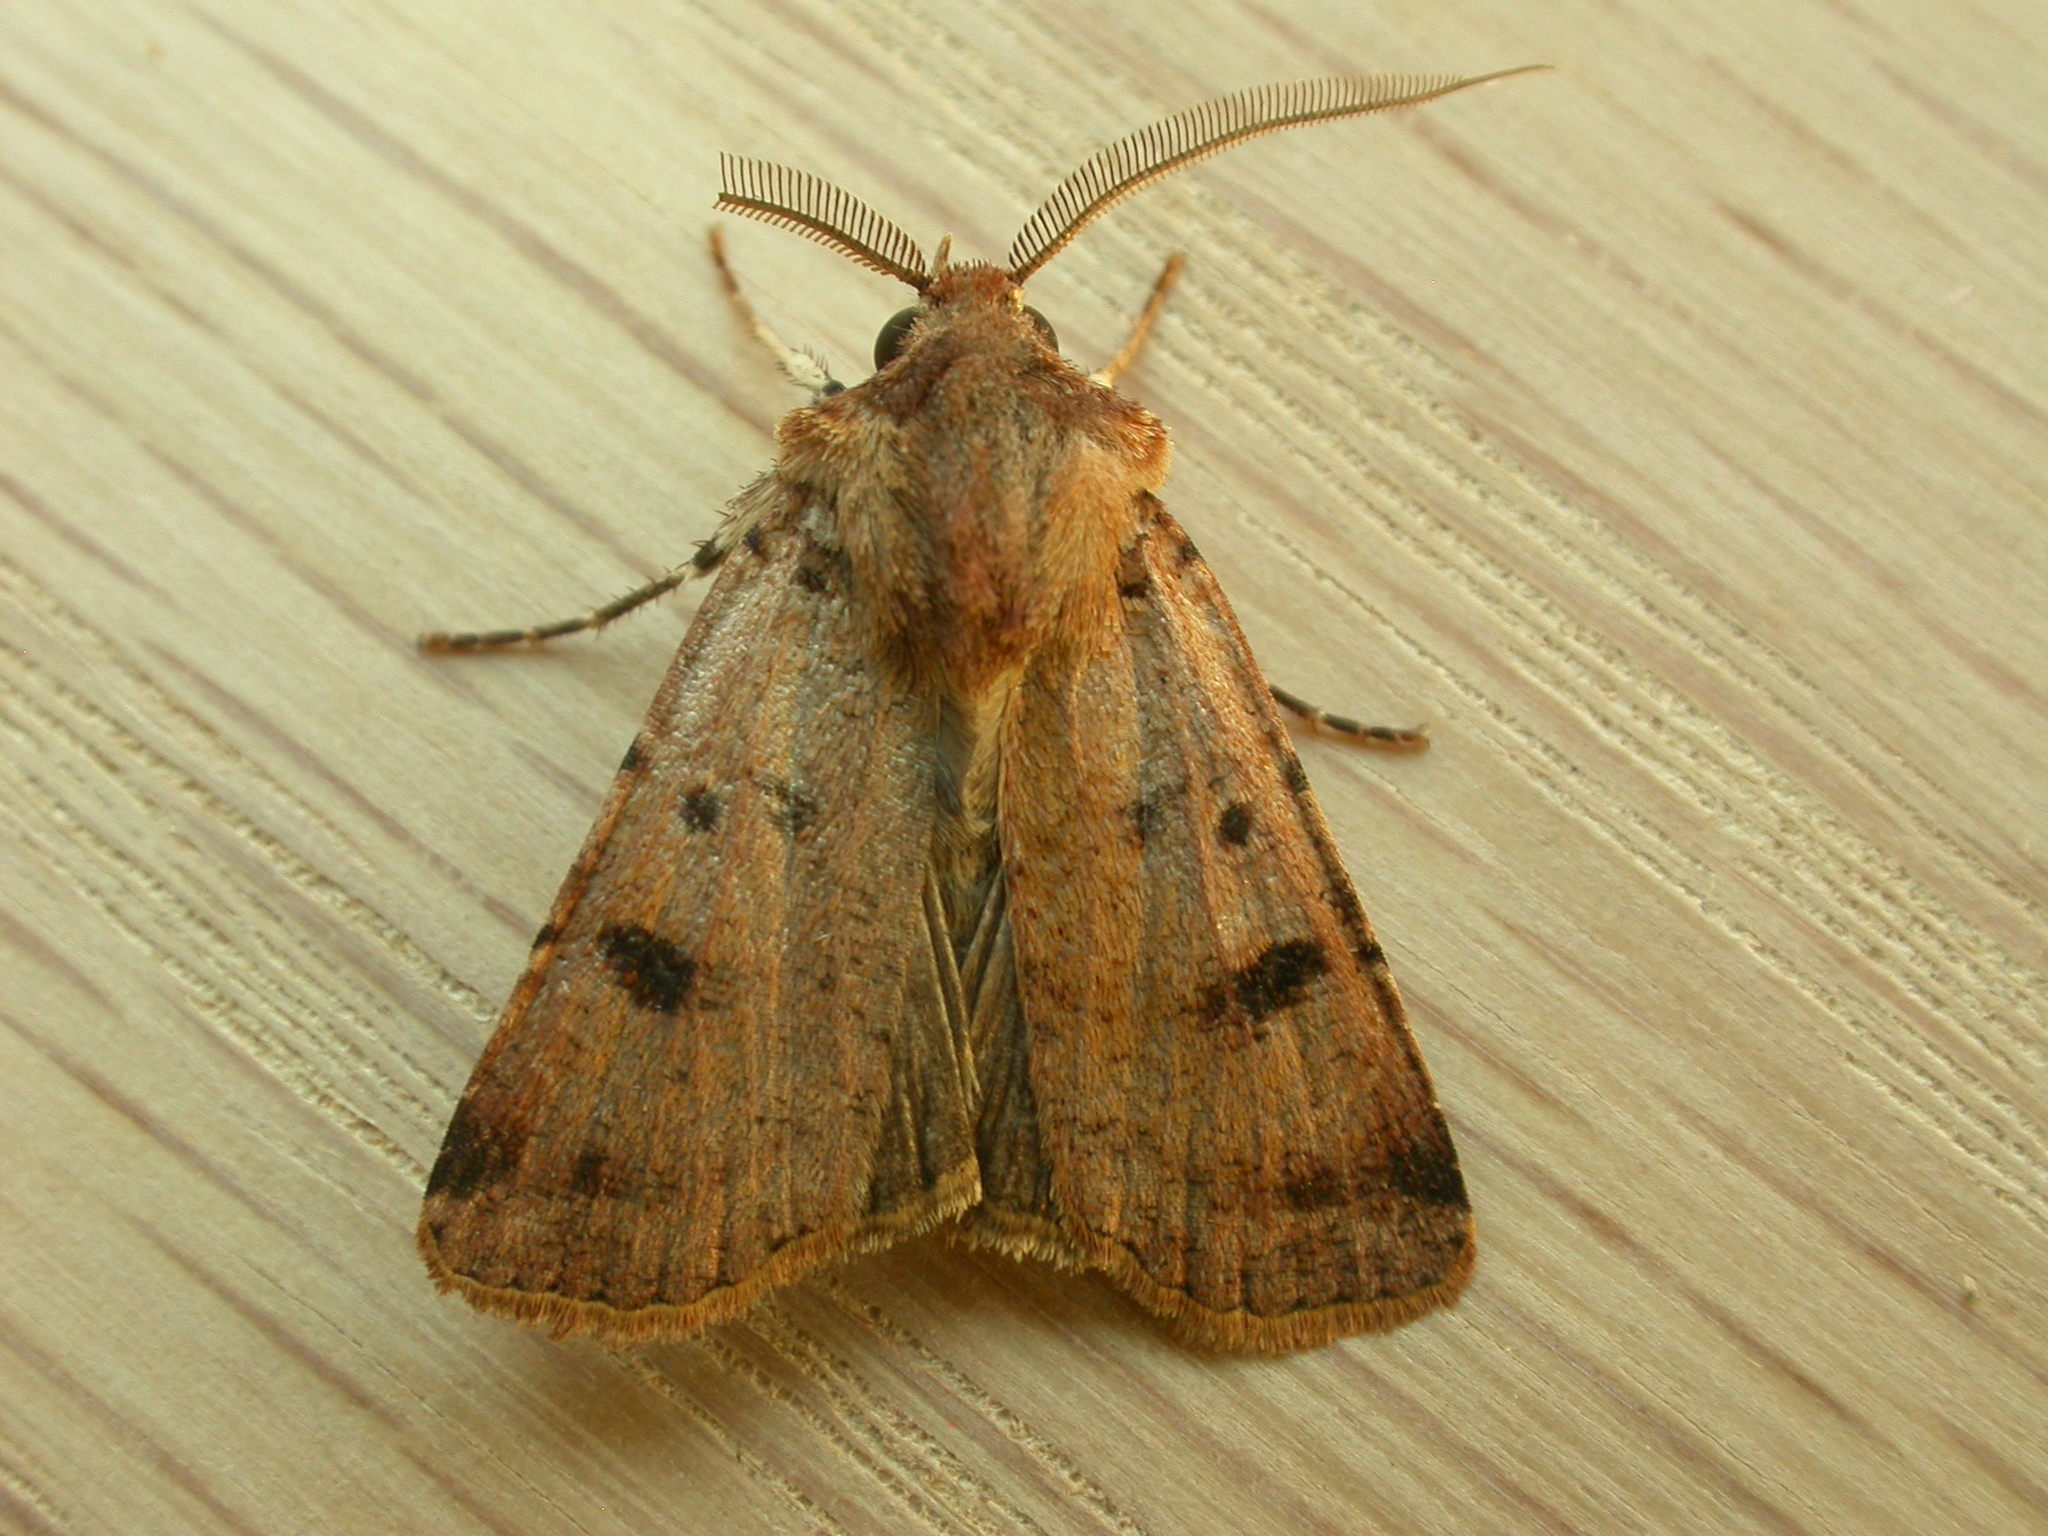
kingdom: Animalia
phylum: Arthropoda
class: Insecta
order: Lepidoptera
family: Noctuidae
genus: Agrotis
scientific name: Agrotis porphyricollis
